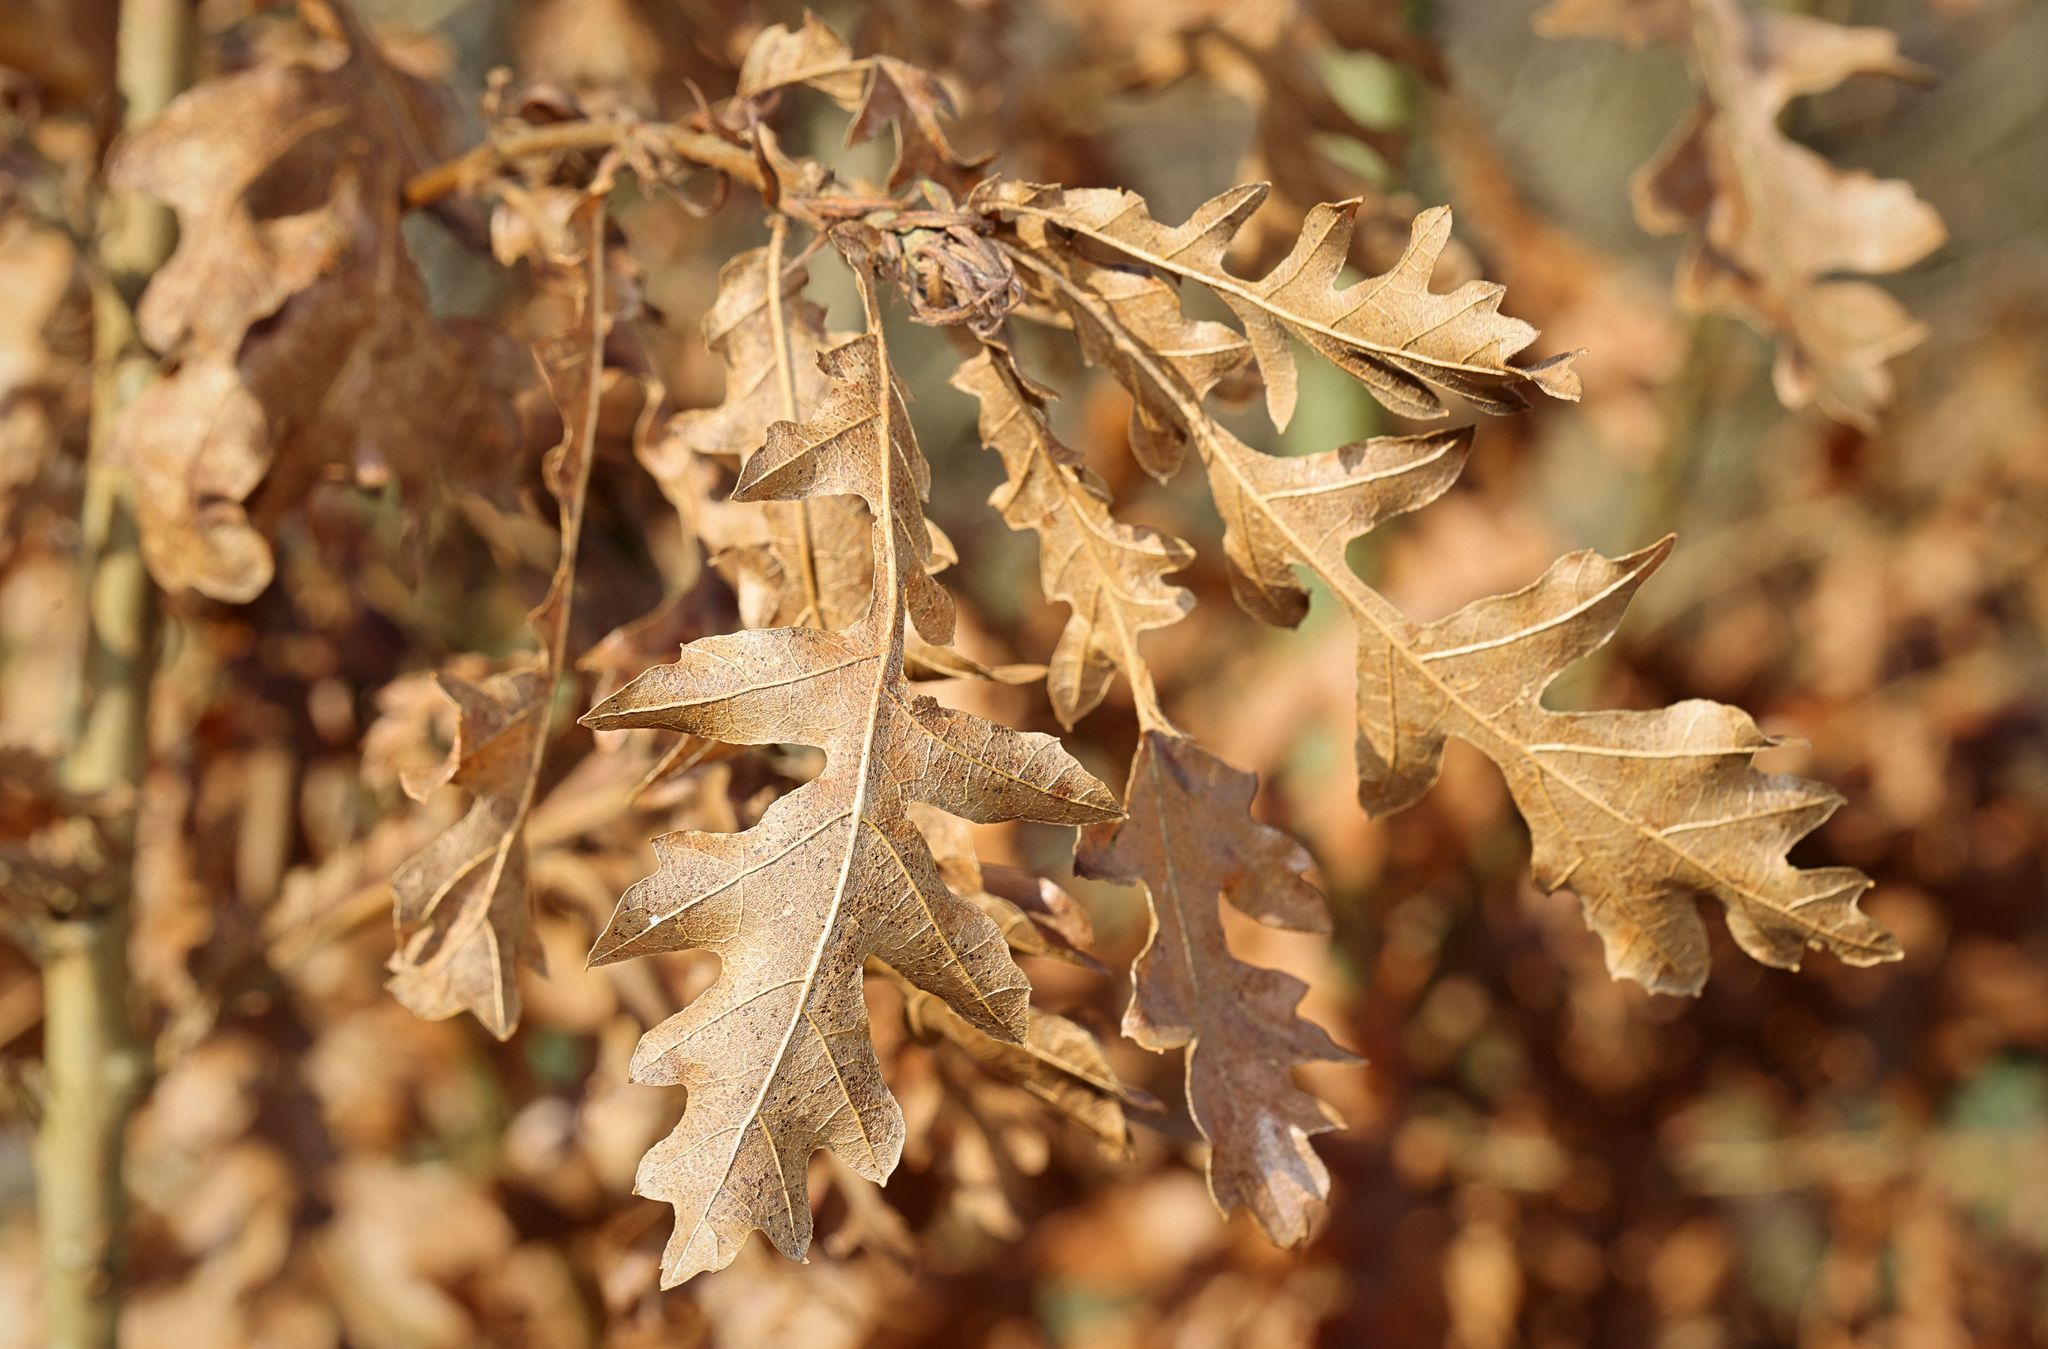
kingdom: Plantae
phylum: Tracheophyta
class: Magnoliopsida
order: Fagales
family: Fagaceae
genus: Quercus
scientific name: Quercus cerris
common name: Turkey oak
